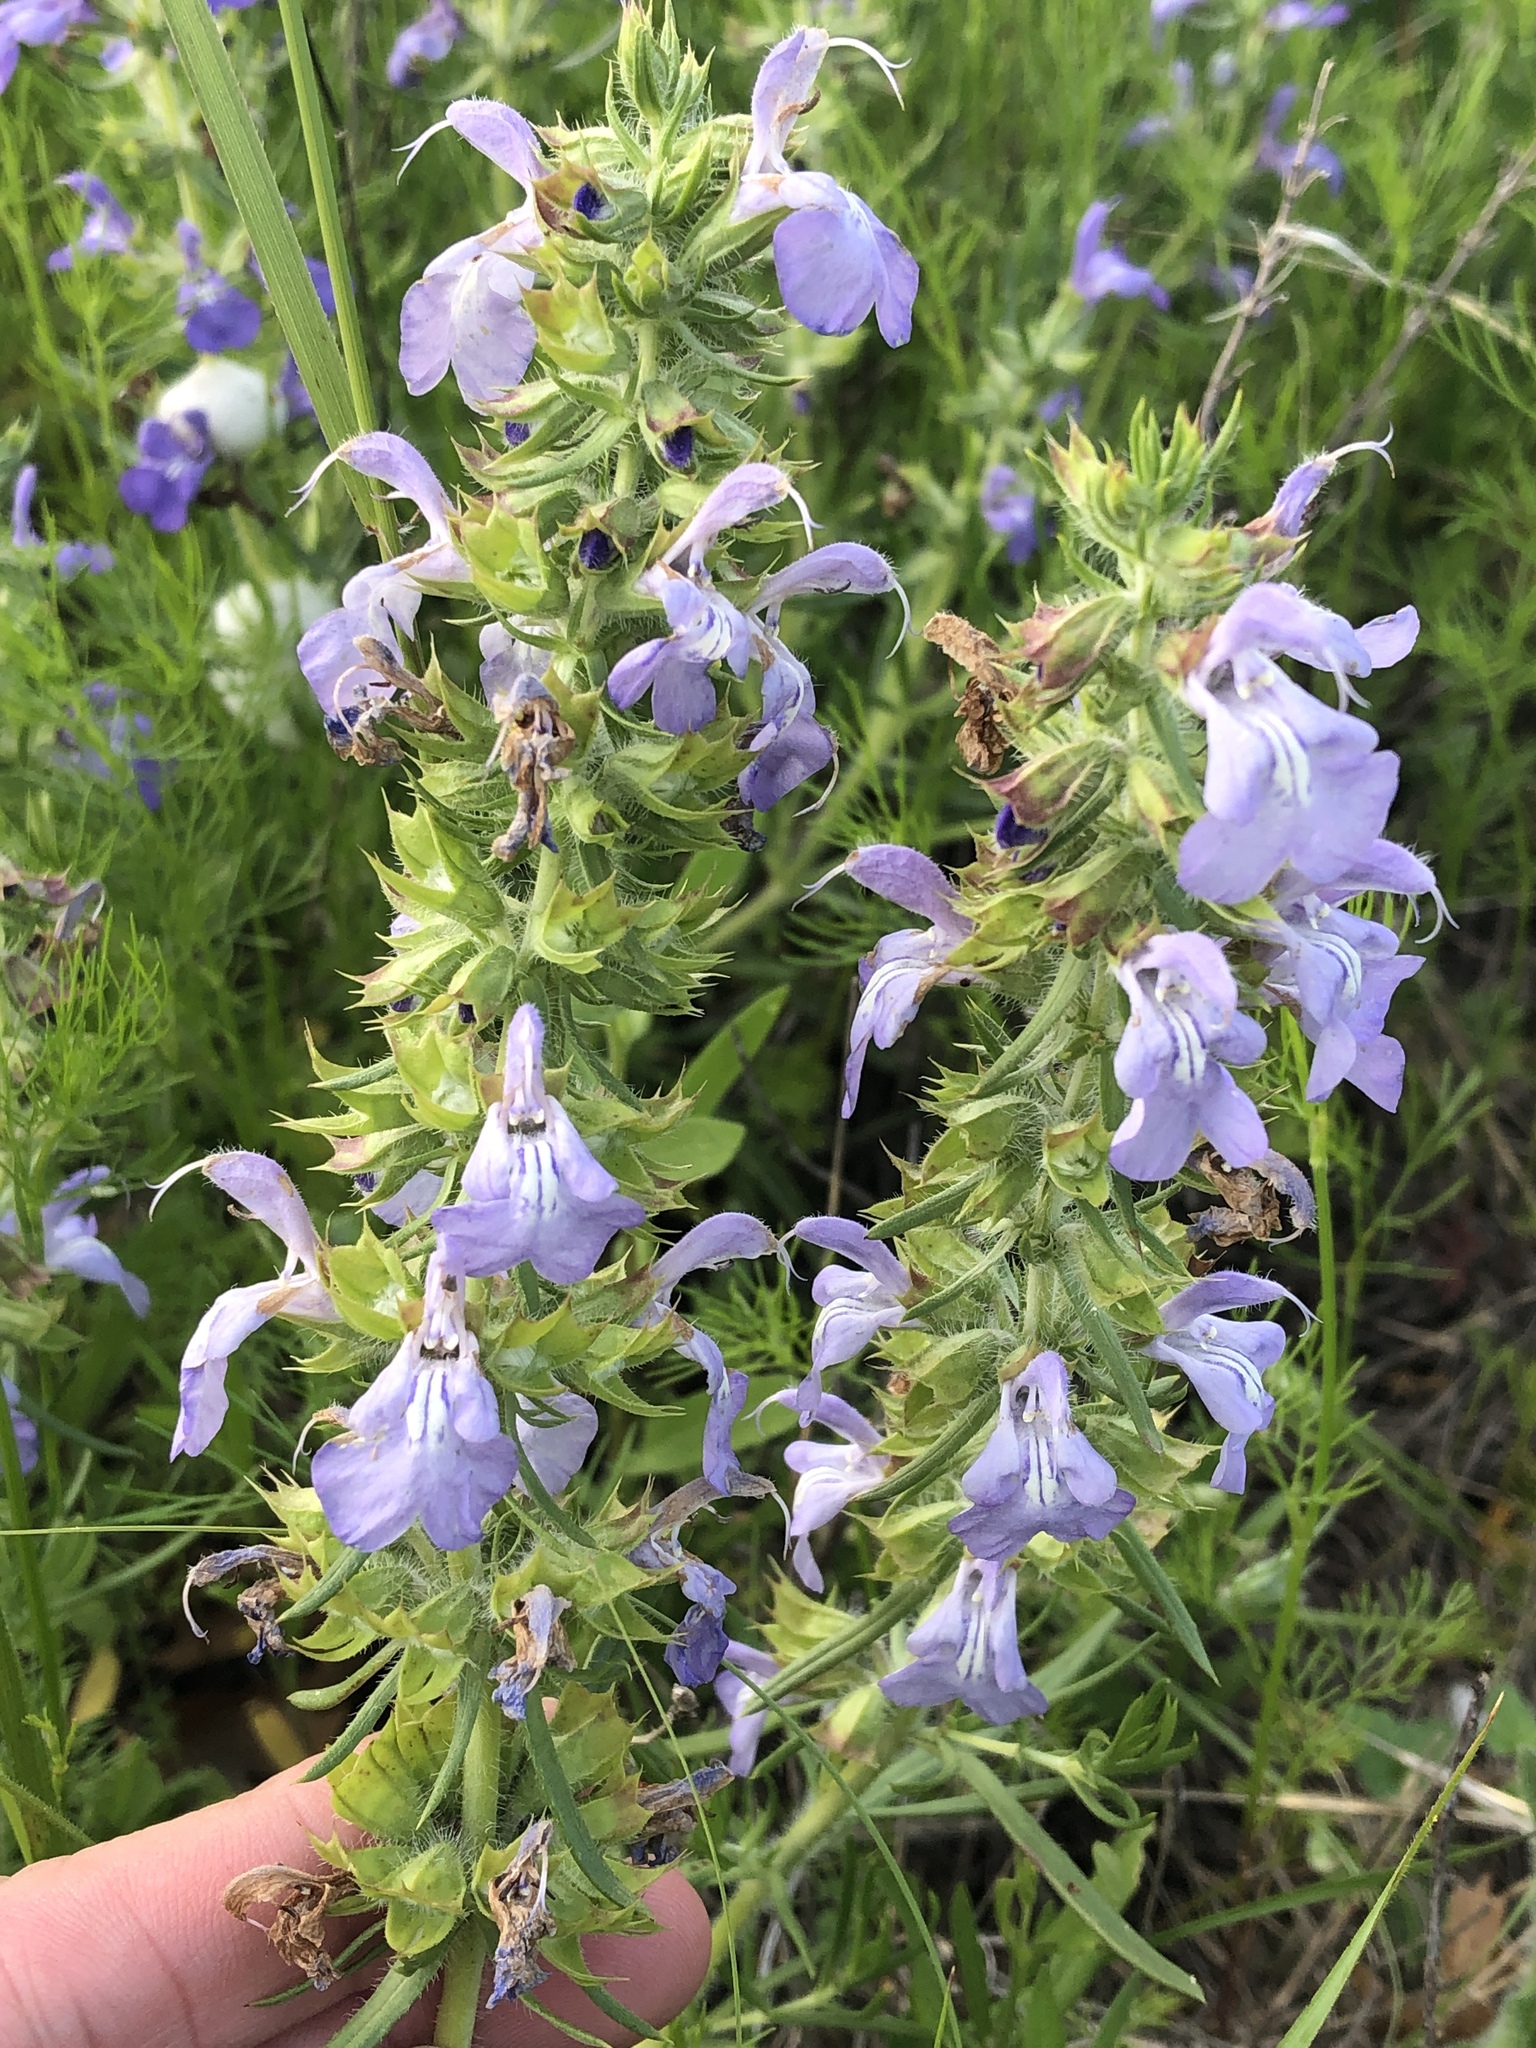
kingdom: Plantae
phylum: Tracheophyta
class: Magnoliopsida
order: Lamiales
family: Lamiaceae
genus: Salvia
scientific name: Salvia engelmannii
